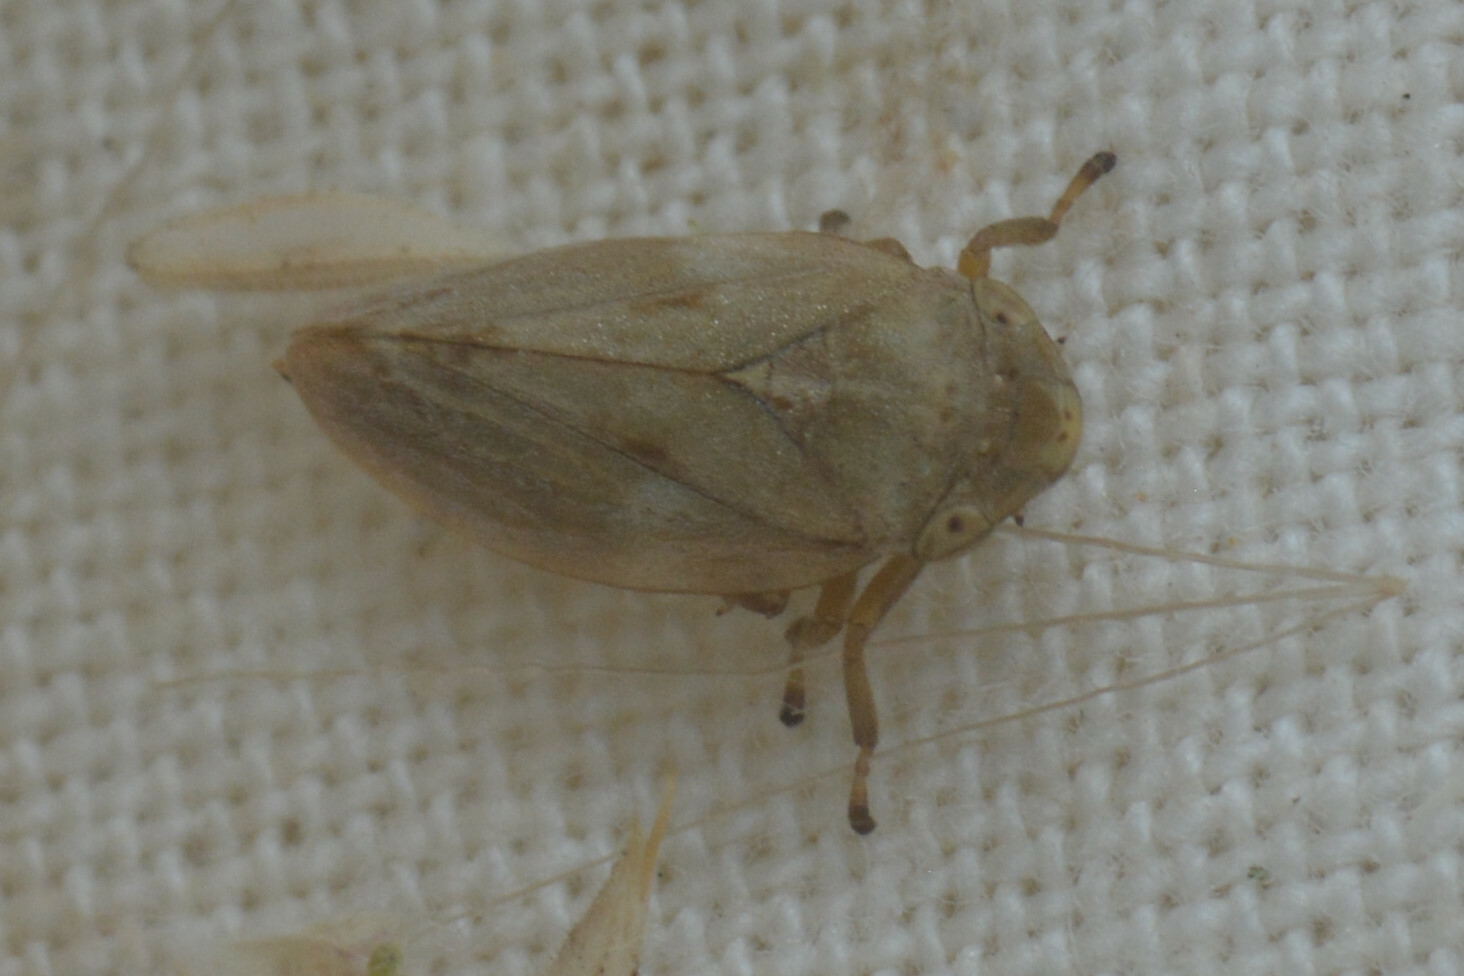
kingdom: Animalia
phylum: Arthropoda
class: Insecta
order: Hemiptera
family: Aphrophoridae
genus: Philaenus
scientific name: Philaenus spumarius
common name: Meadow spittlebug
